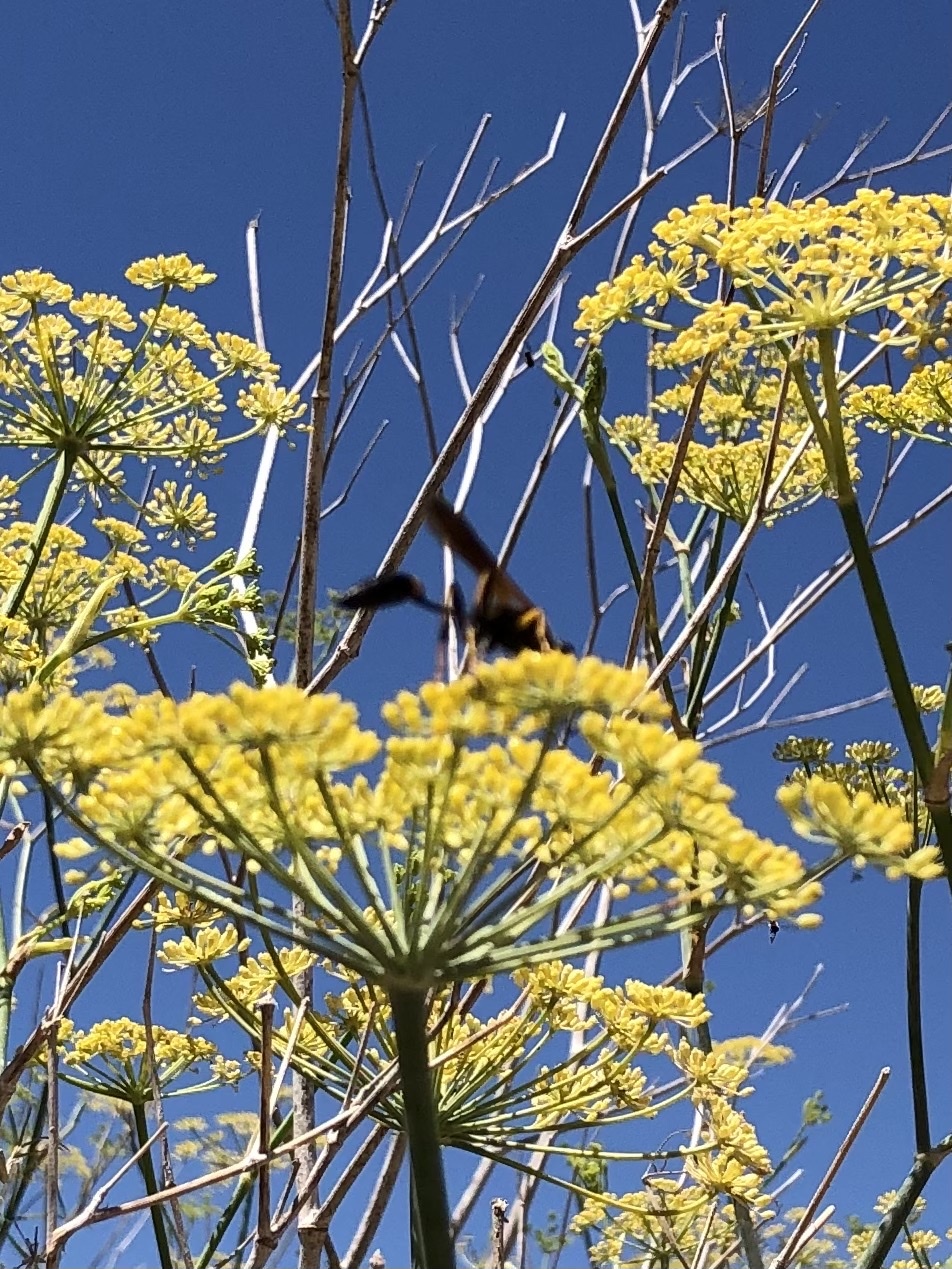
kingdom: Animalia
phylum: Arthropoda
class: Insecta
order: Hymenoptera
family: Sphecidae
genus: Sceliphron
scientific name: Sceliphron caementarium
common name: Mud dauber
